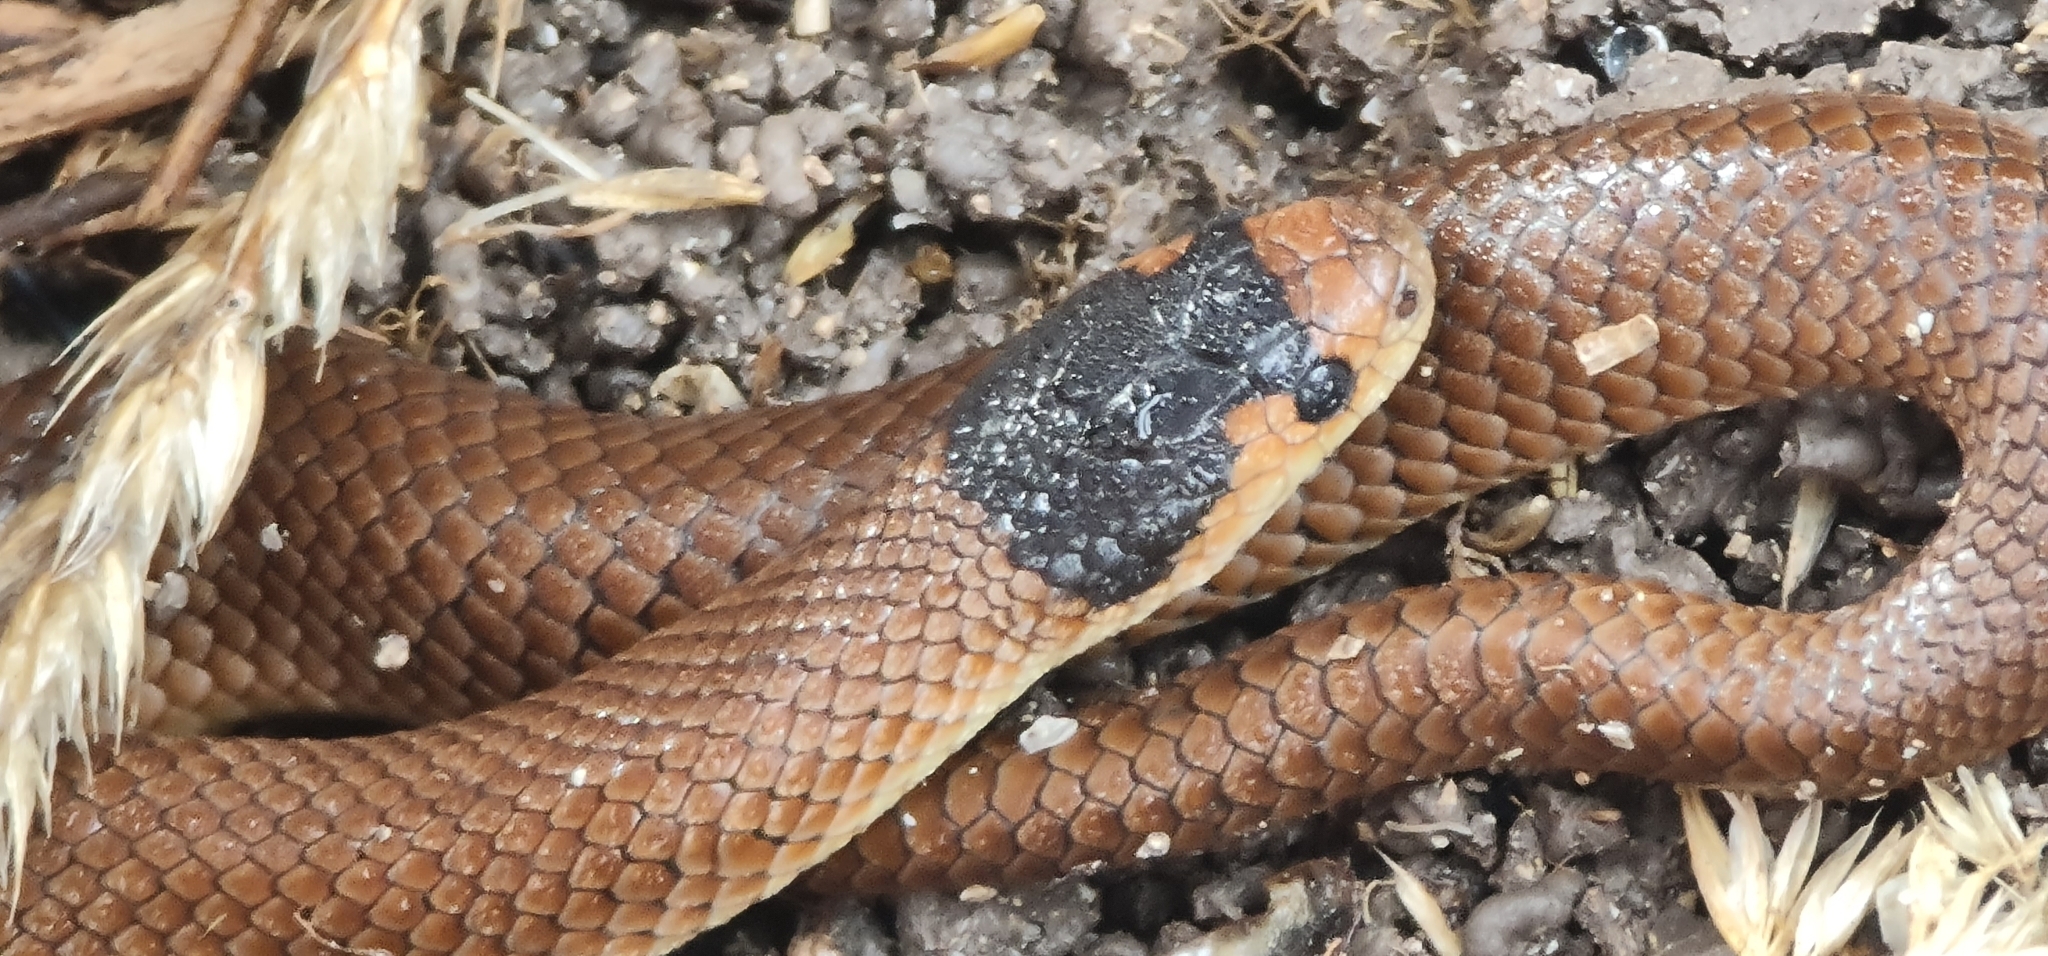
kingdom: Animalia
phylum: Chordata
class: Squamata
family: Elapidae
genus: Suta
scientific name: Suta flagellum
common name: Little whip snake
